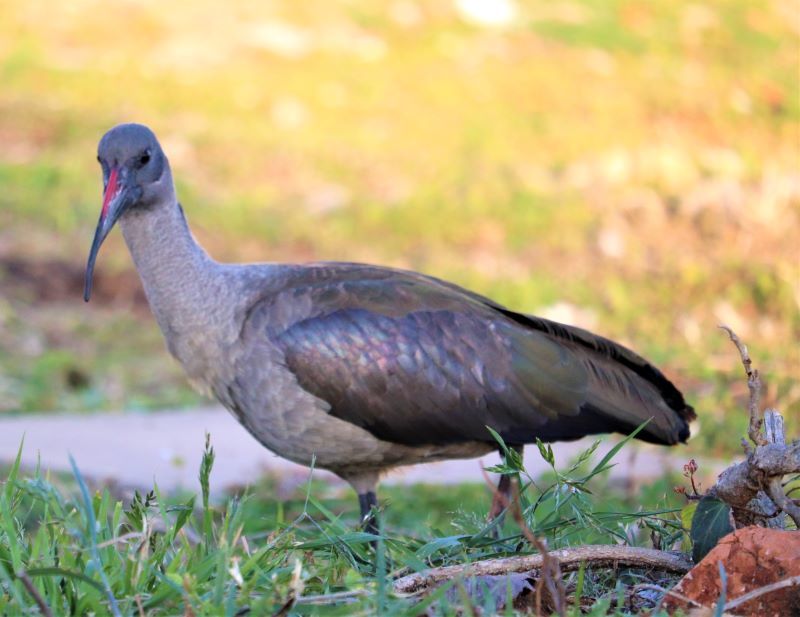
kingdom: Animalia
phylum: Chordata
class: Aves
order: Pelecaniformes
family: Threskiornithidae
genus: Bostrychia
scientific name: Bostrychia hagedash
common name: Hadada ibis
